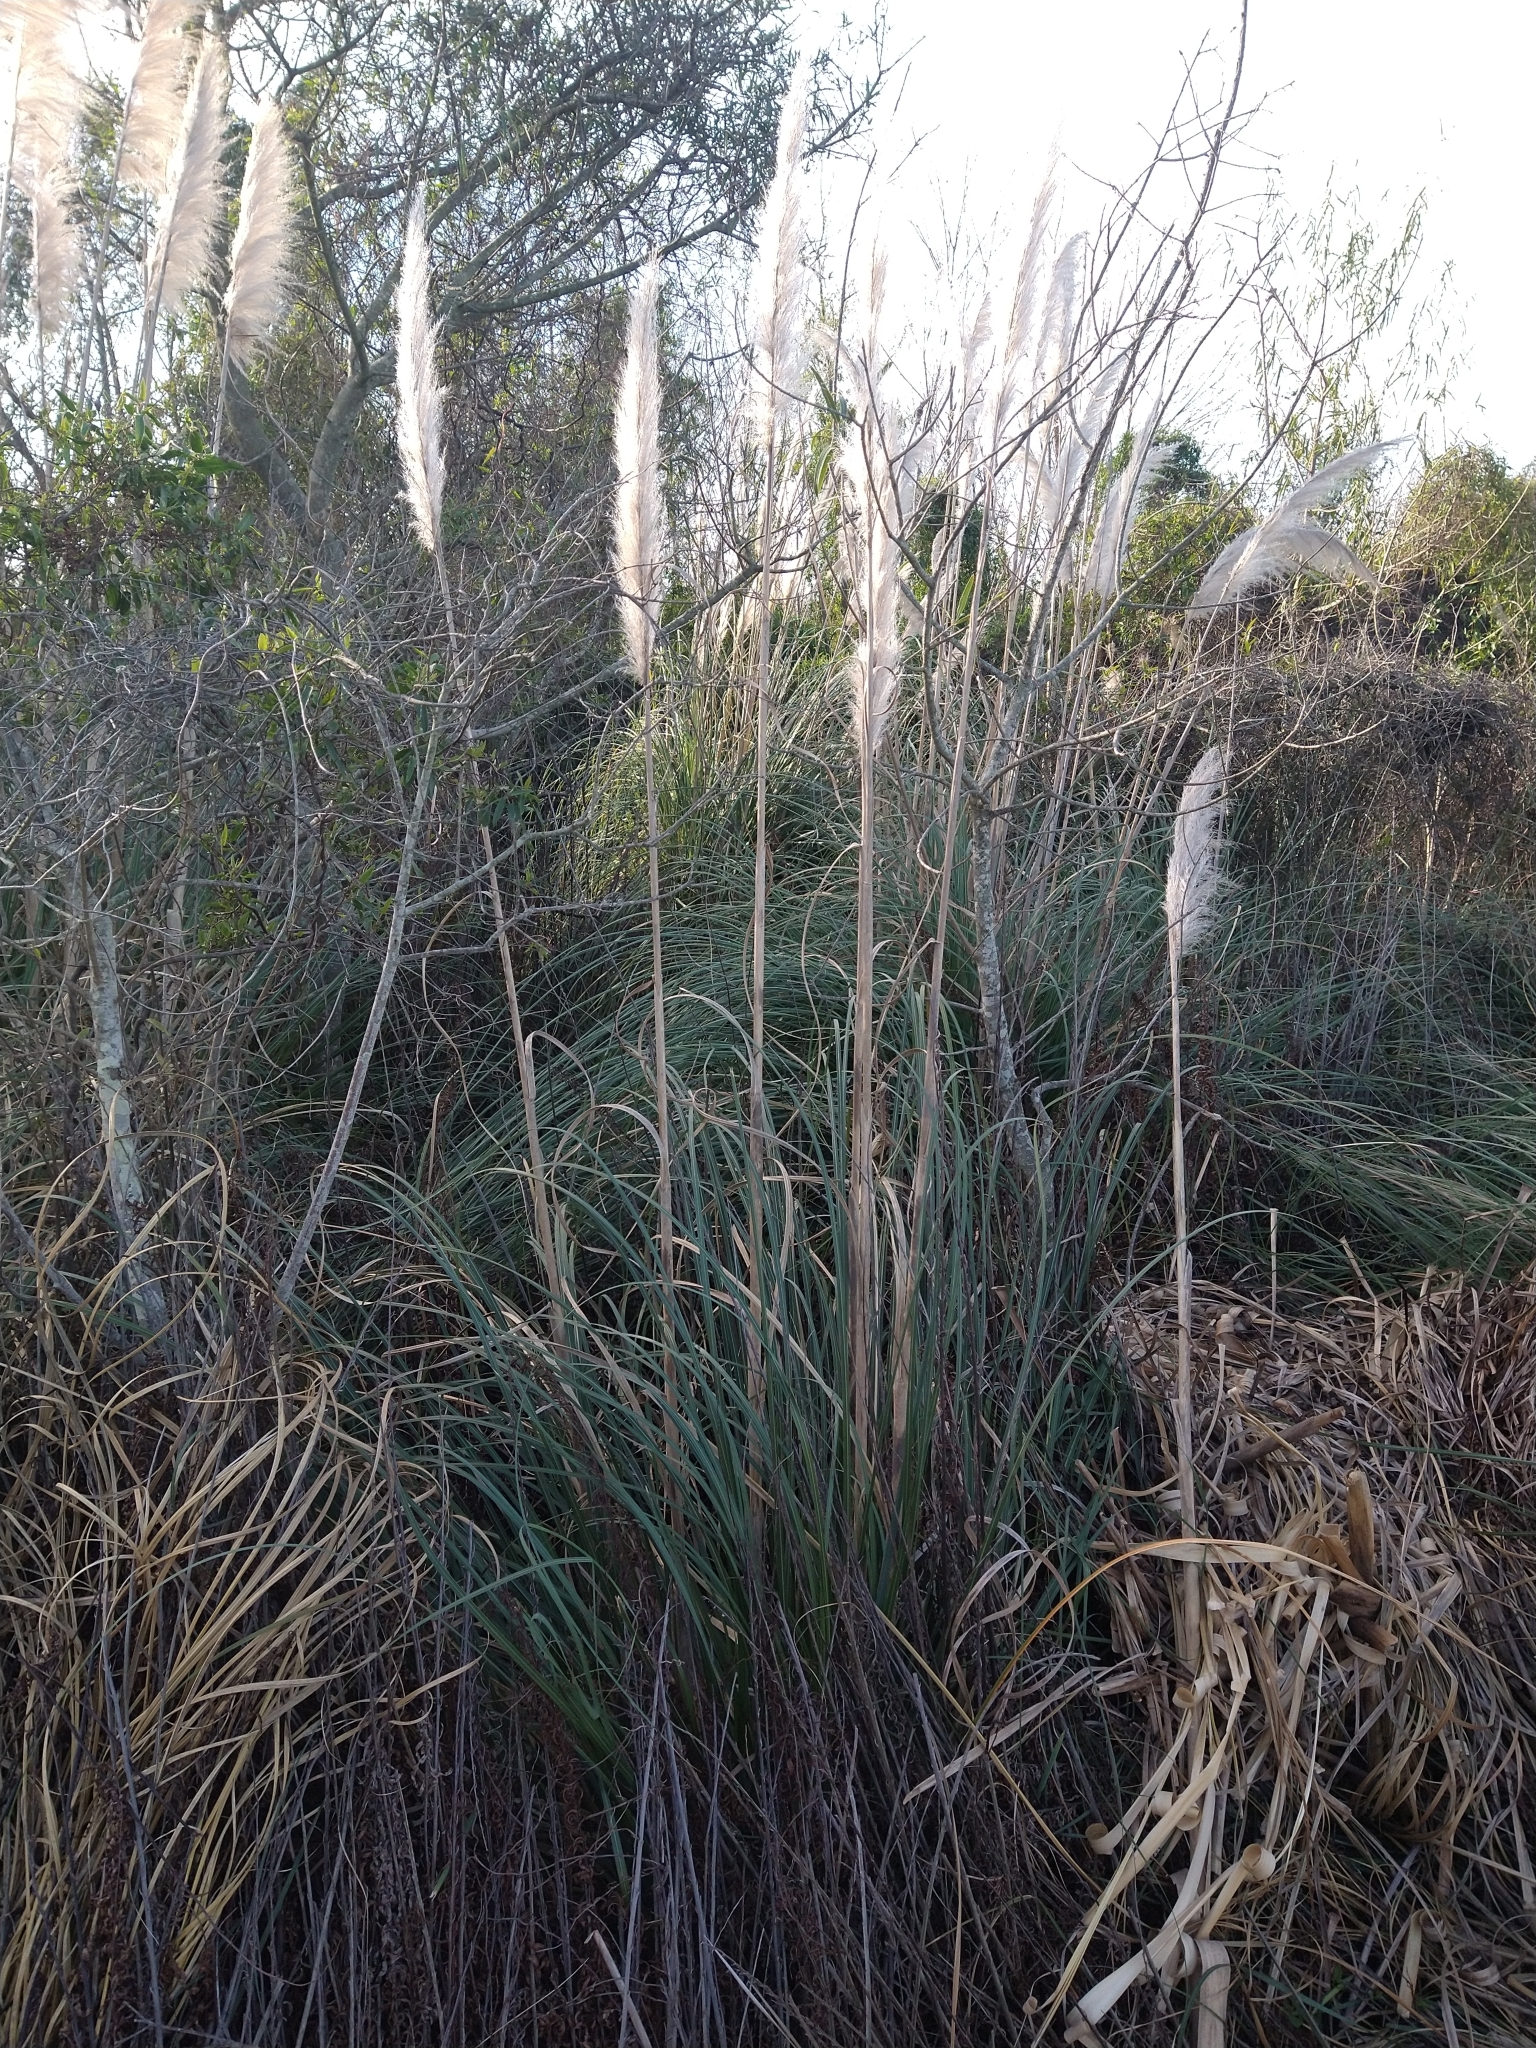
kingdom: Plantae
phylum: Tracheophyta
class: Liliopsida
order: Poales
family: Poaceae
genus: Cortaderia
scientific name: Cortaderia selloana
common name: Uruguayan pampas grass
